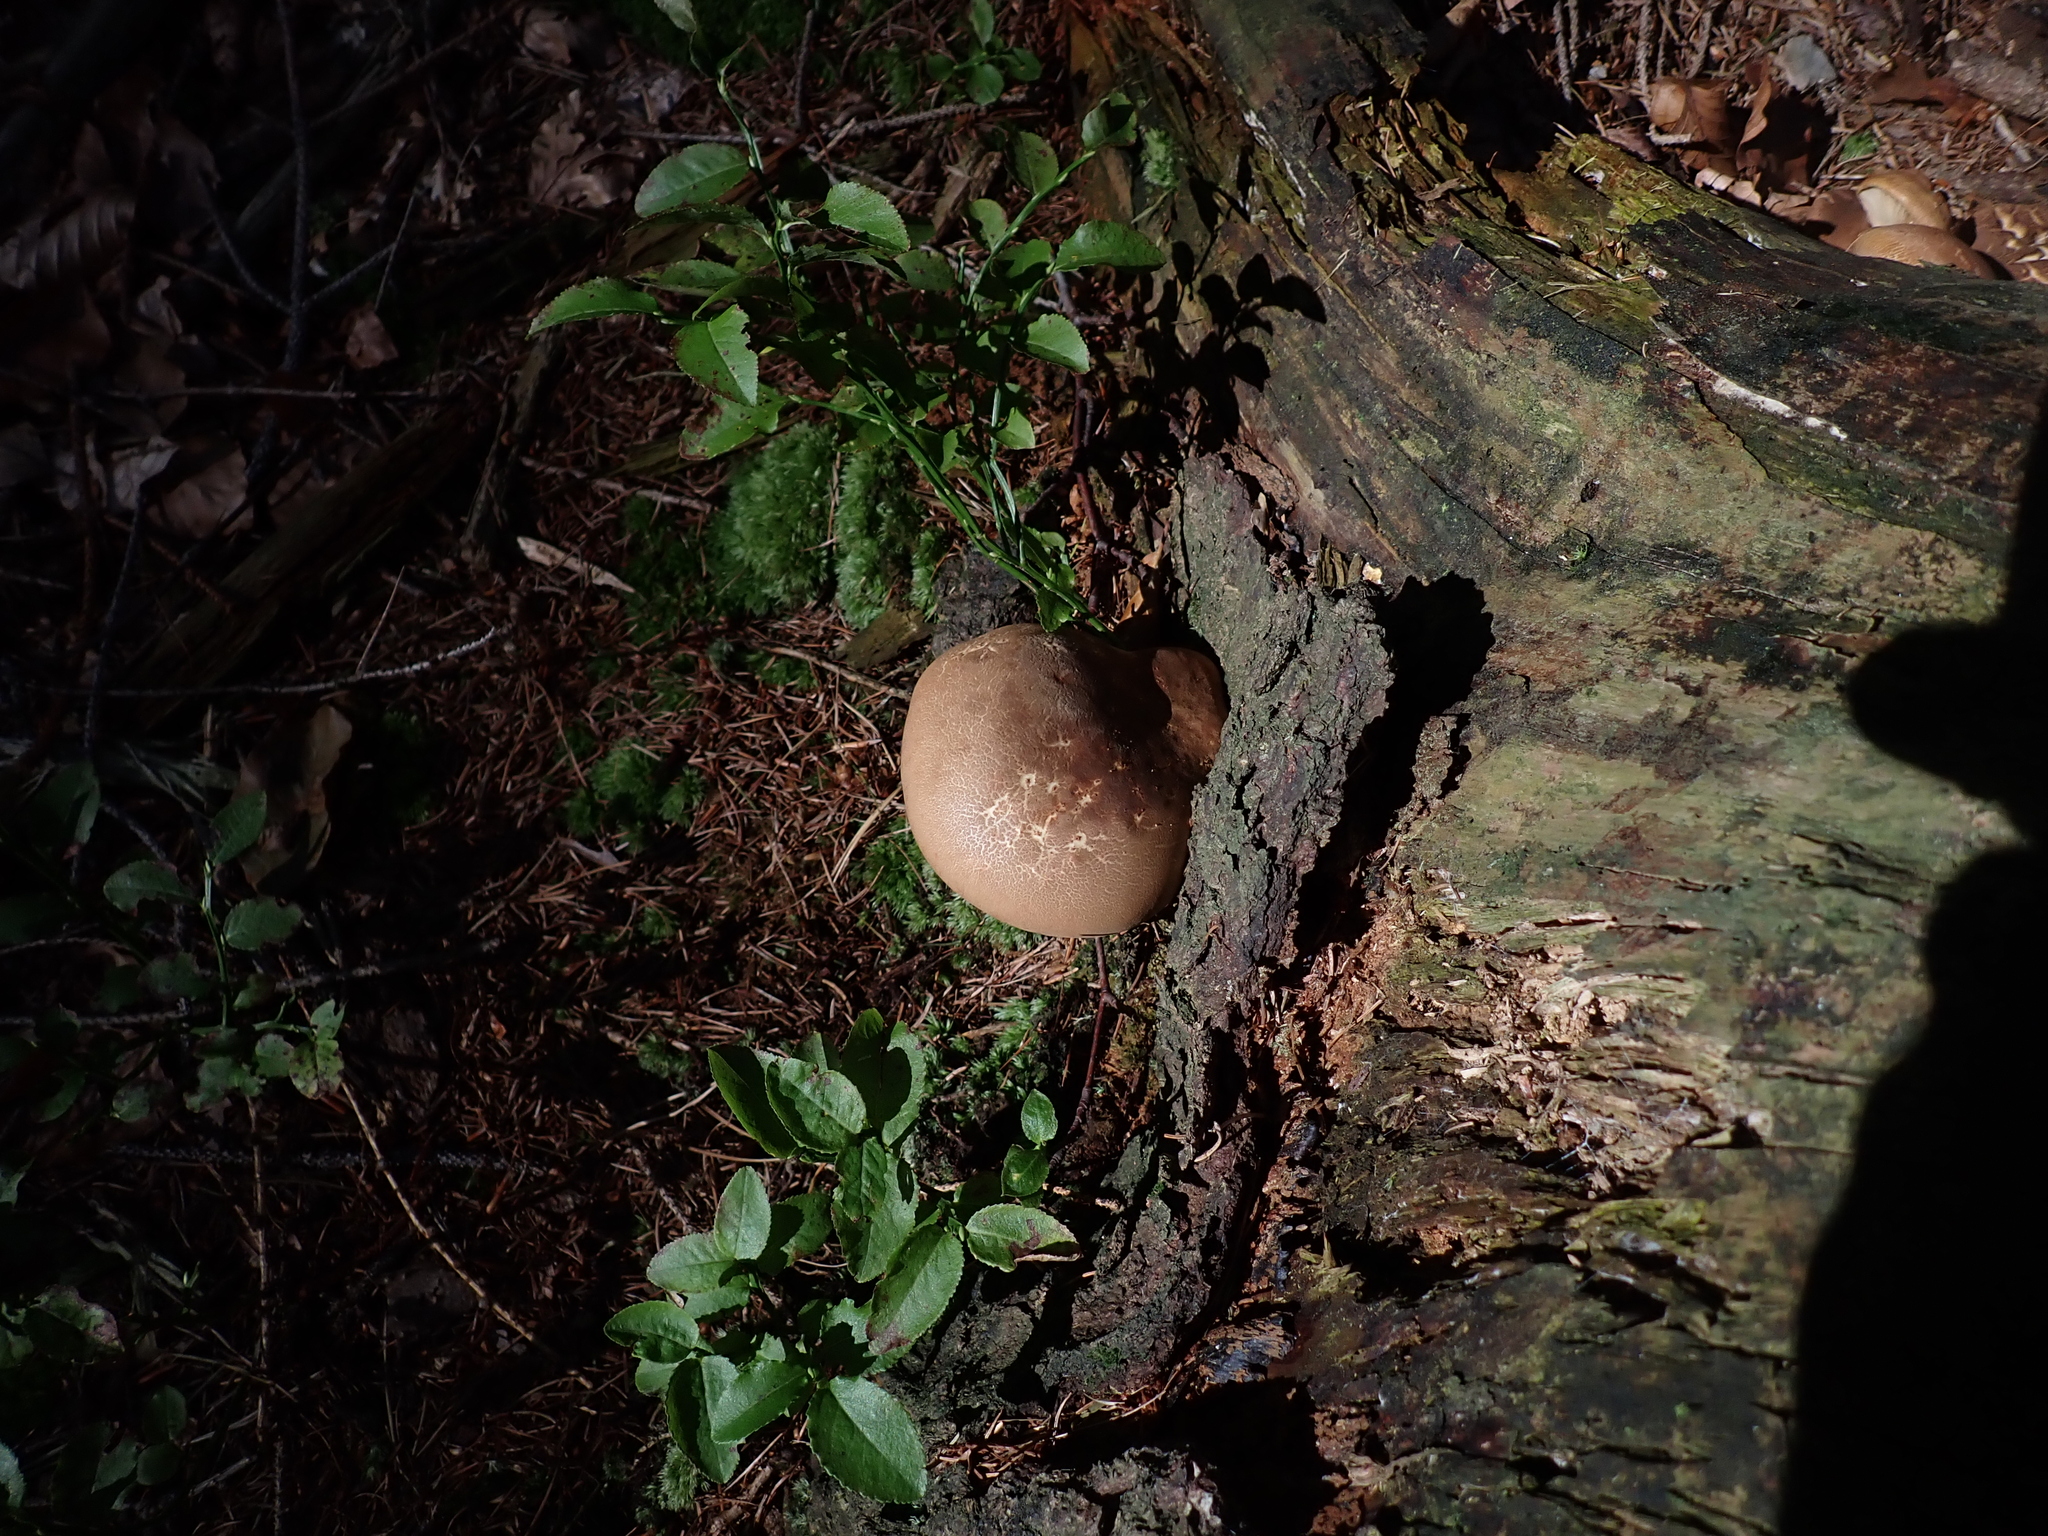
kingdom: Fungi
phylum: Basidiomycota
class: Agaricomycetes
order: Boletales
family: Tapinellaceae
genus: Tapinella
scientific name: Tapinella atrotomentosa
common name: Velvet rollrim
